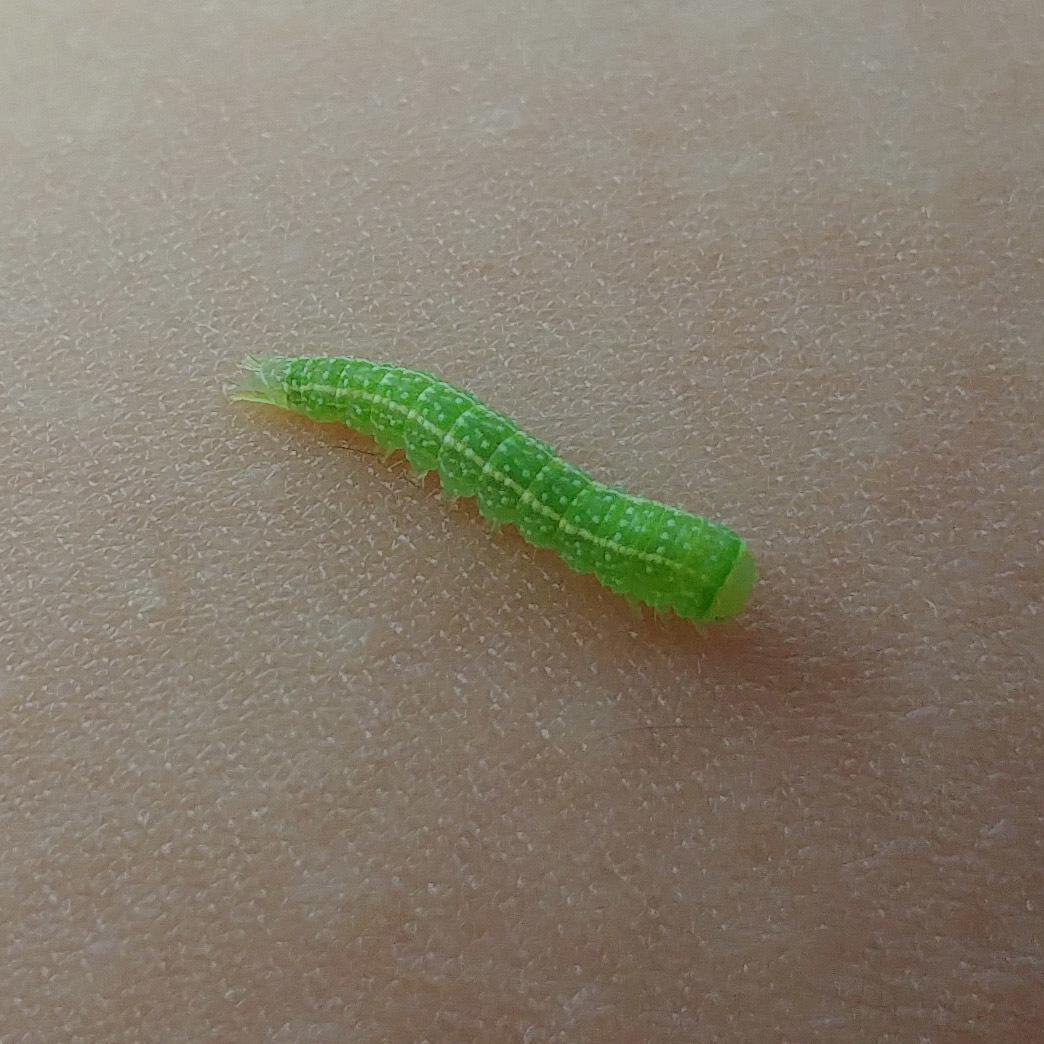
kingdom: Animalia
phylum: Arthropoda
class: Insecta
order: Lepidoptera
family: Nolidae
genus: Pseudoips
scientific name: Pseudoips prasinana
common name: Green silver-lines
